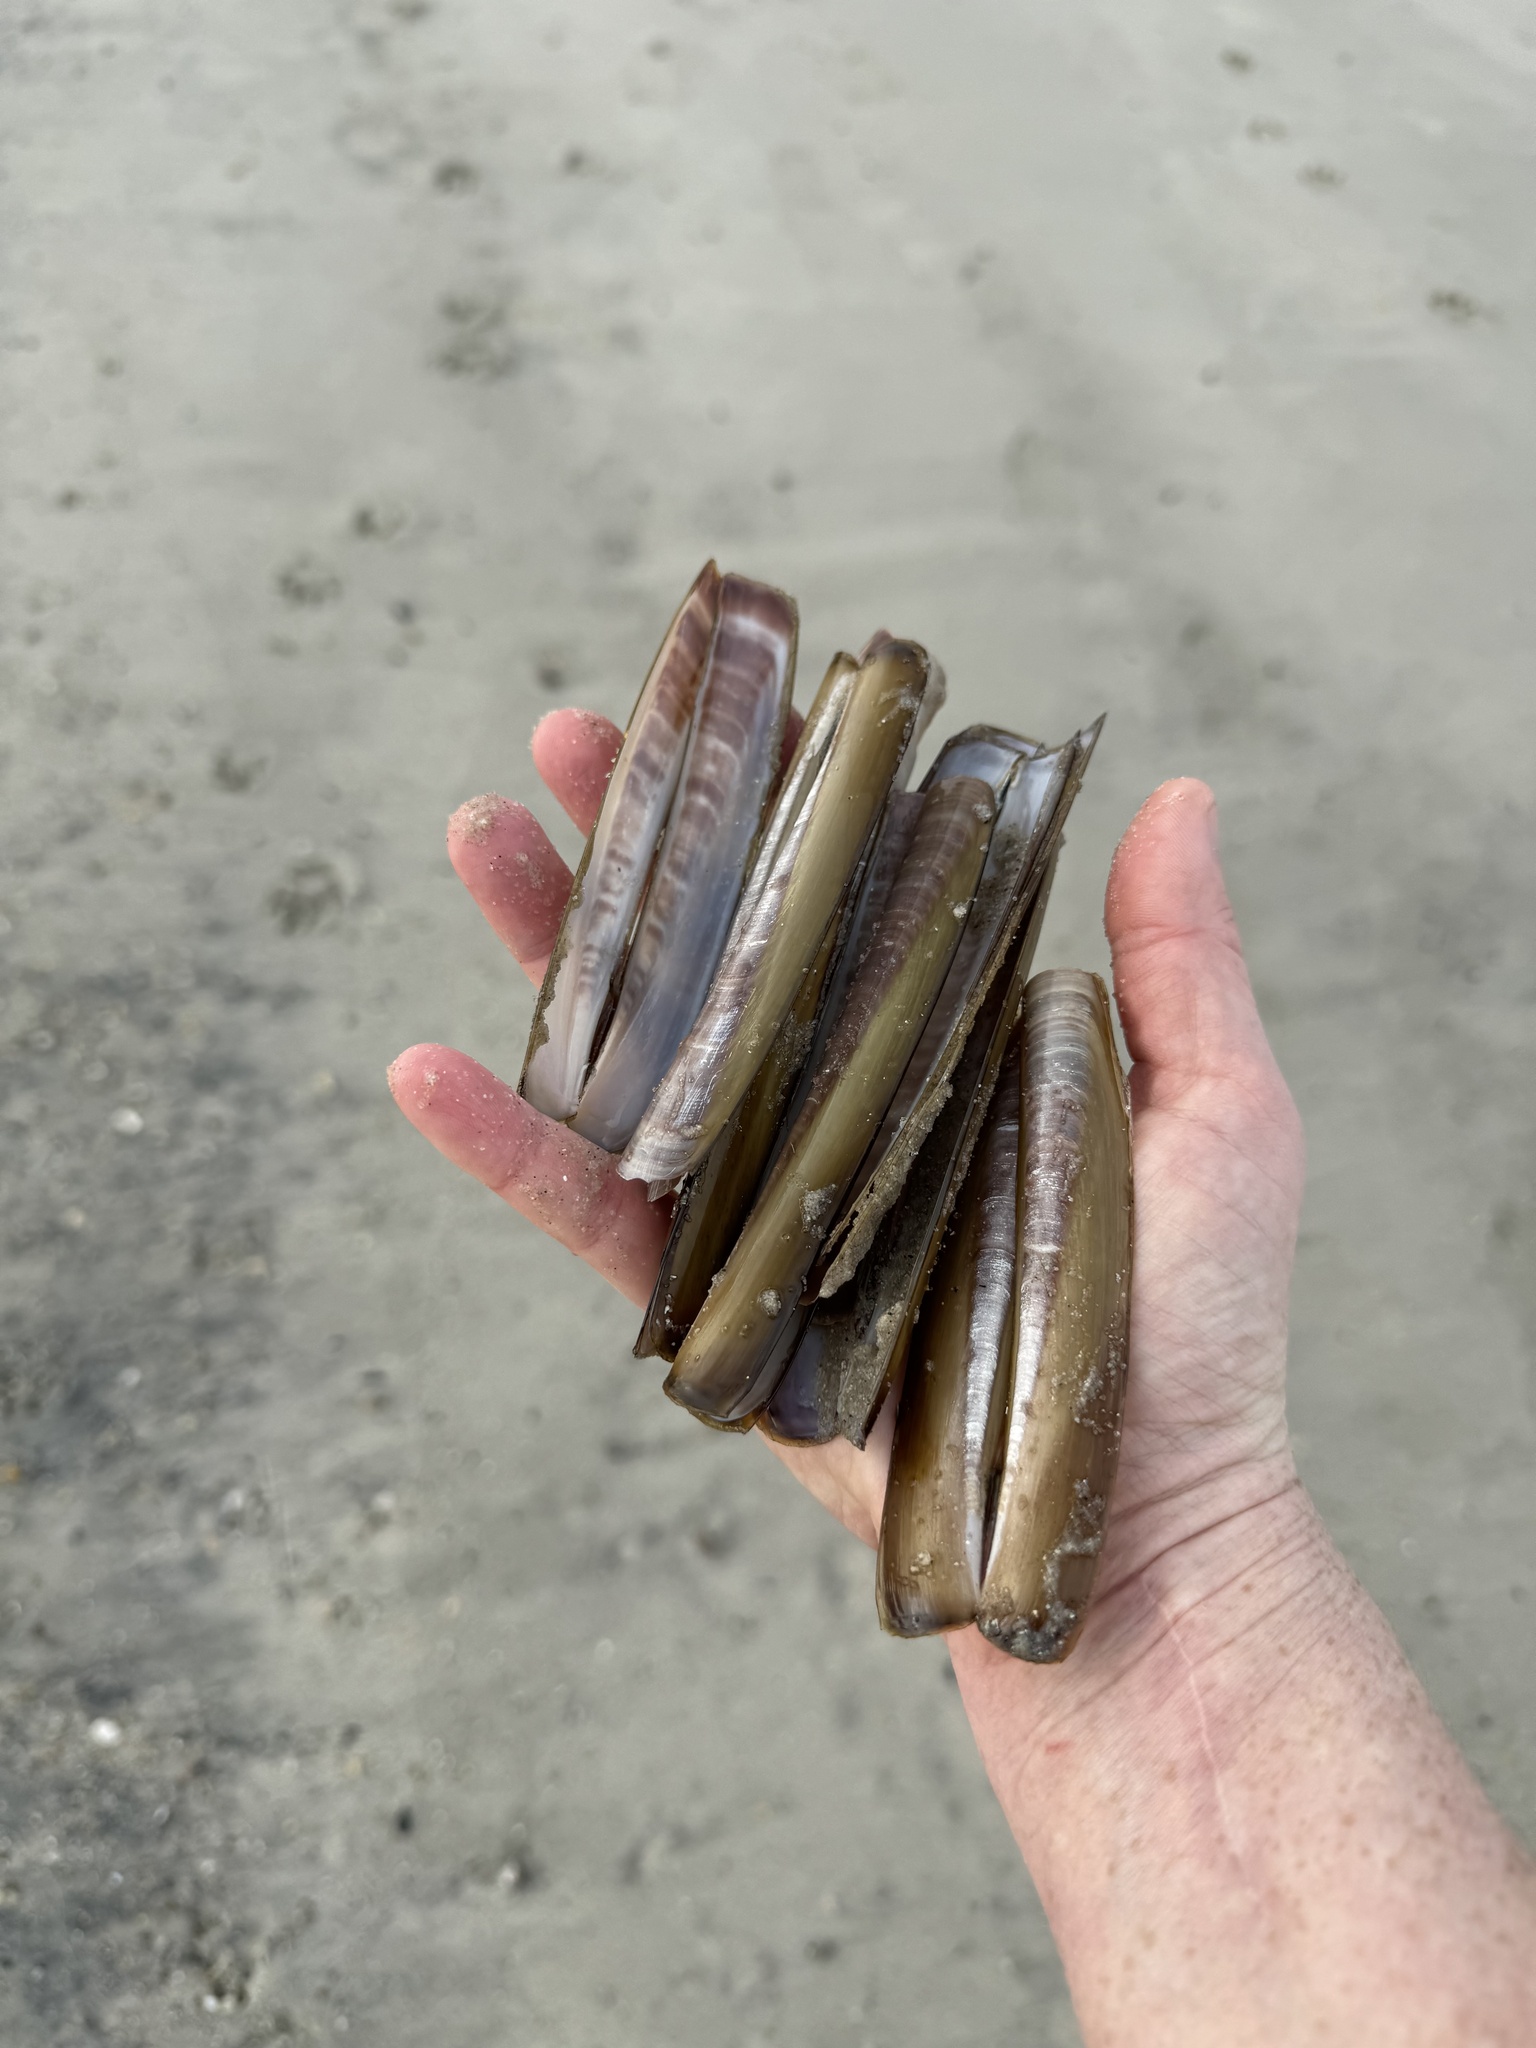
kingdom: Animalia
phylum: Mollusca
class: Bivalvia
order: Adapedonta
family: Pharidae
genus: Ensis
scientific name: Ensis leei
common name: American jack knife clam
